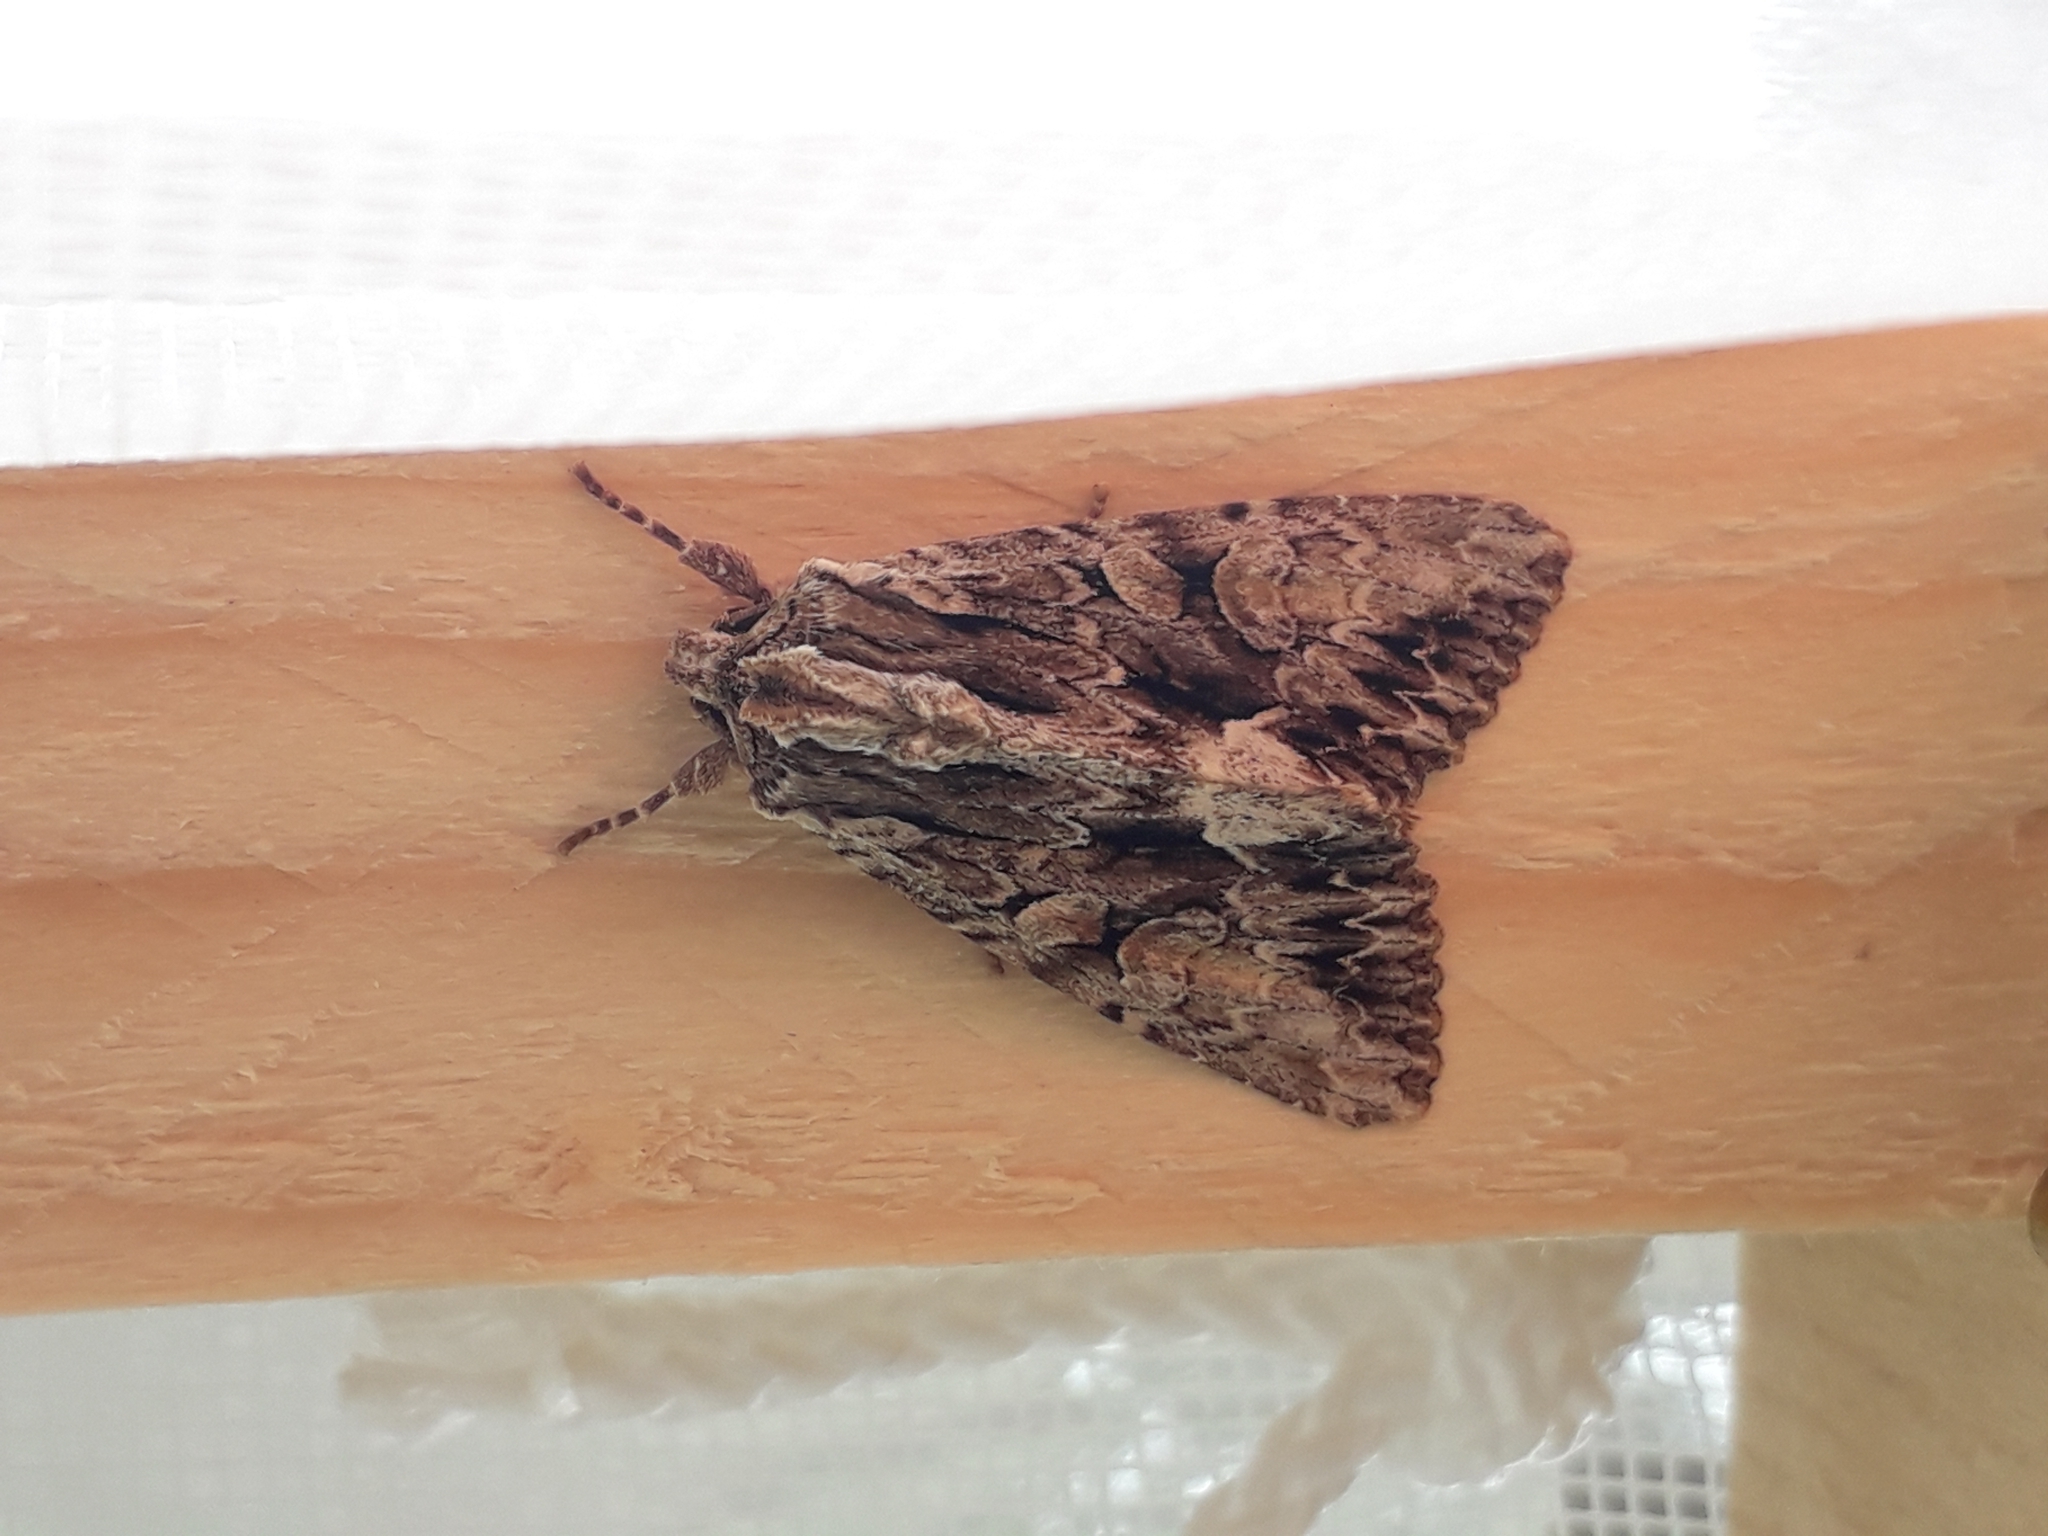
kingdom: Animalia
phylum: Arthropoda
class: Insecta
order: Lepidoptera
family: Noctuidae
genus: Apamea
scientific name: Apamea monoglypha
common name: Dark arches
